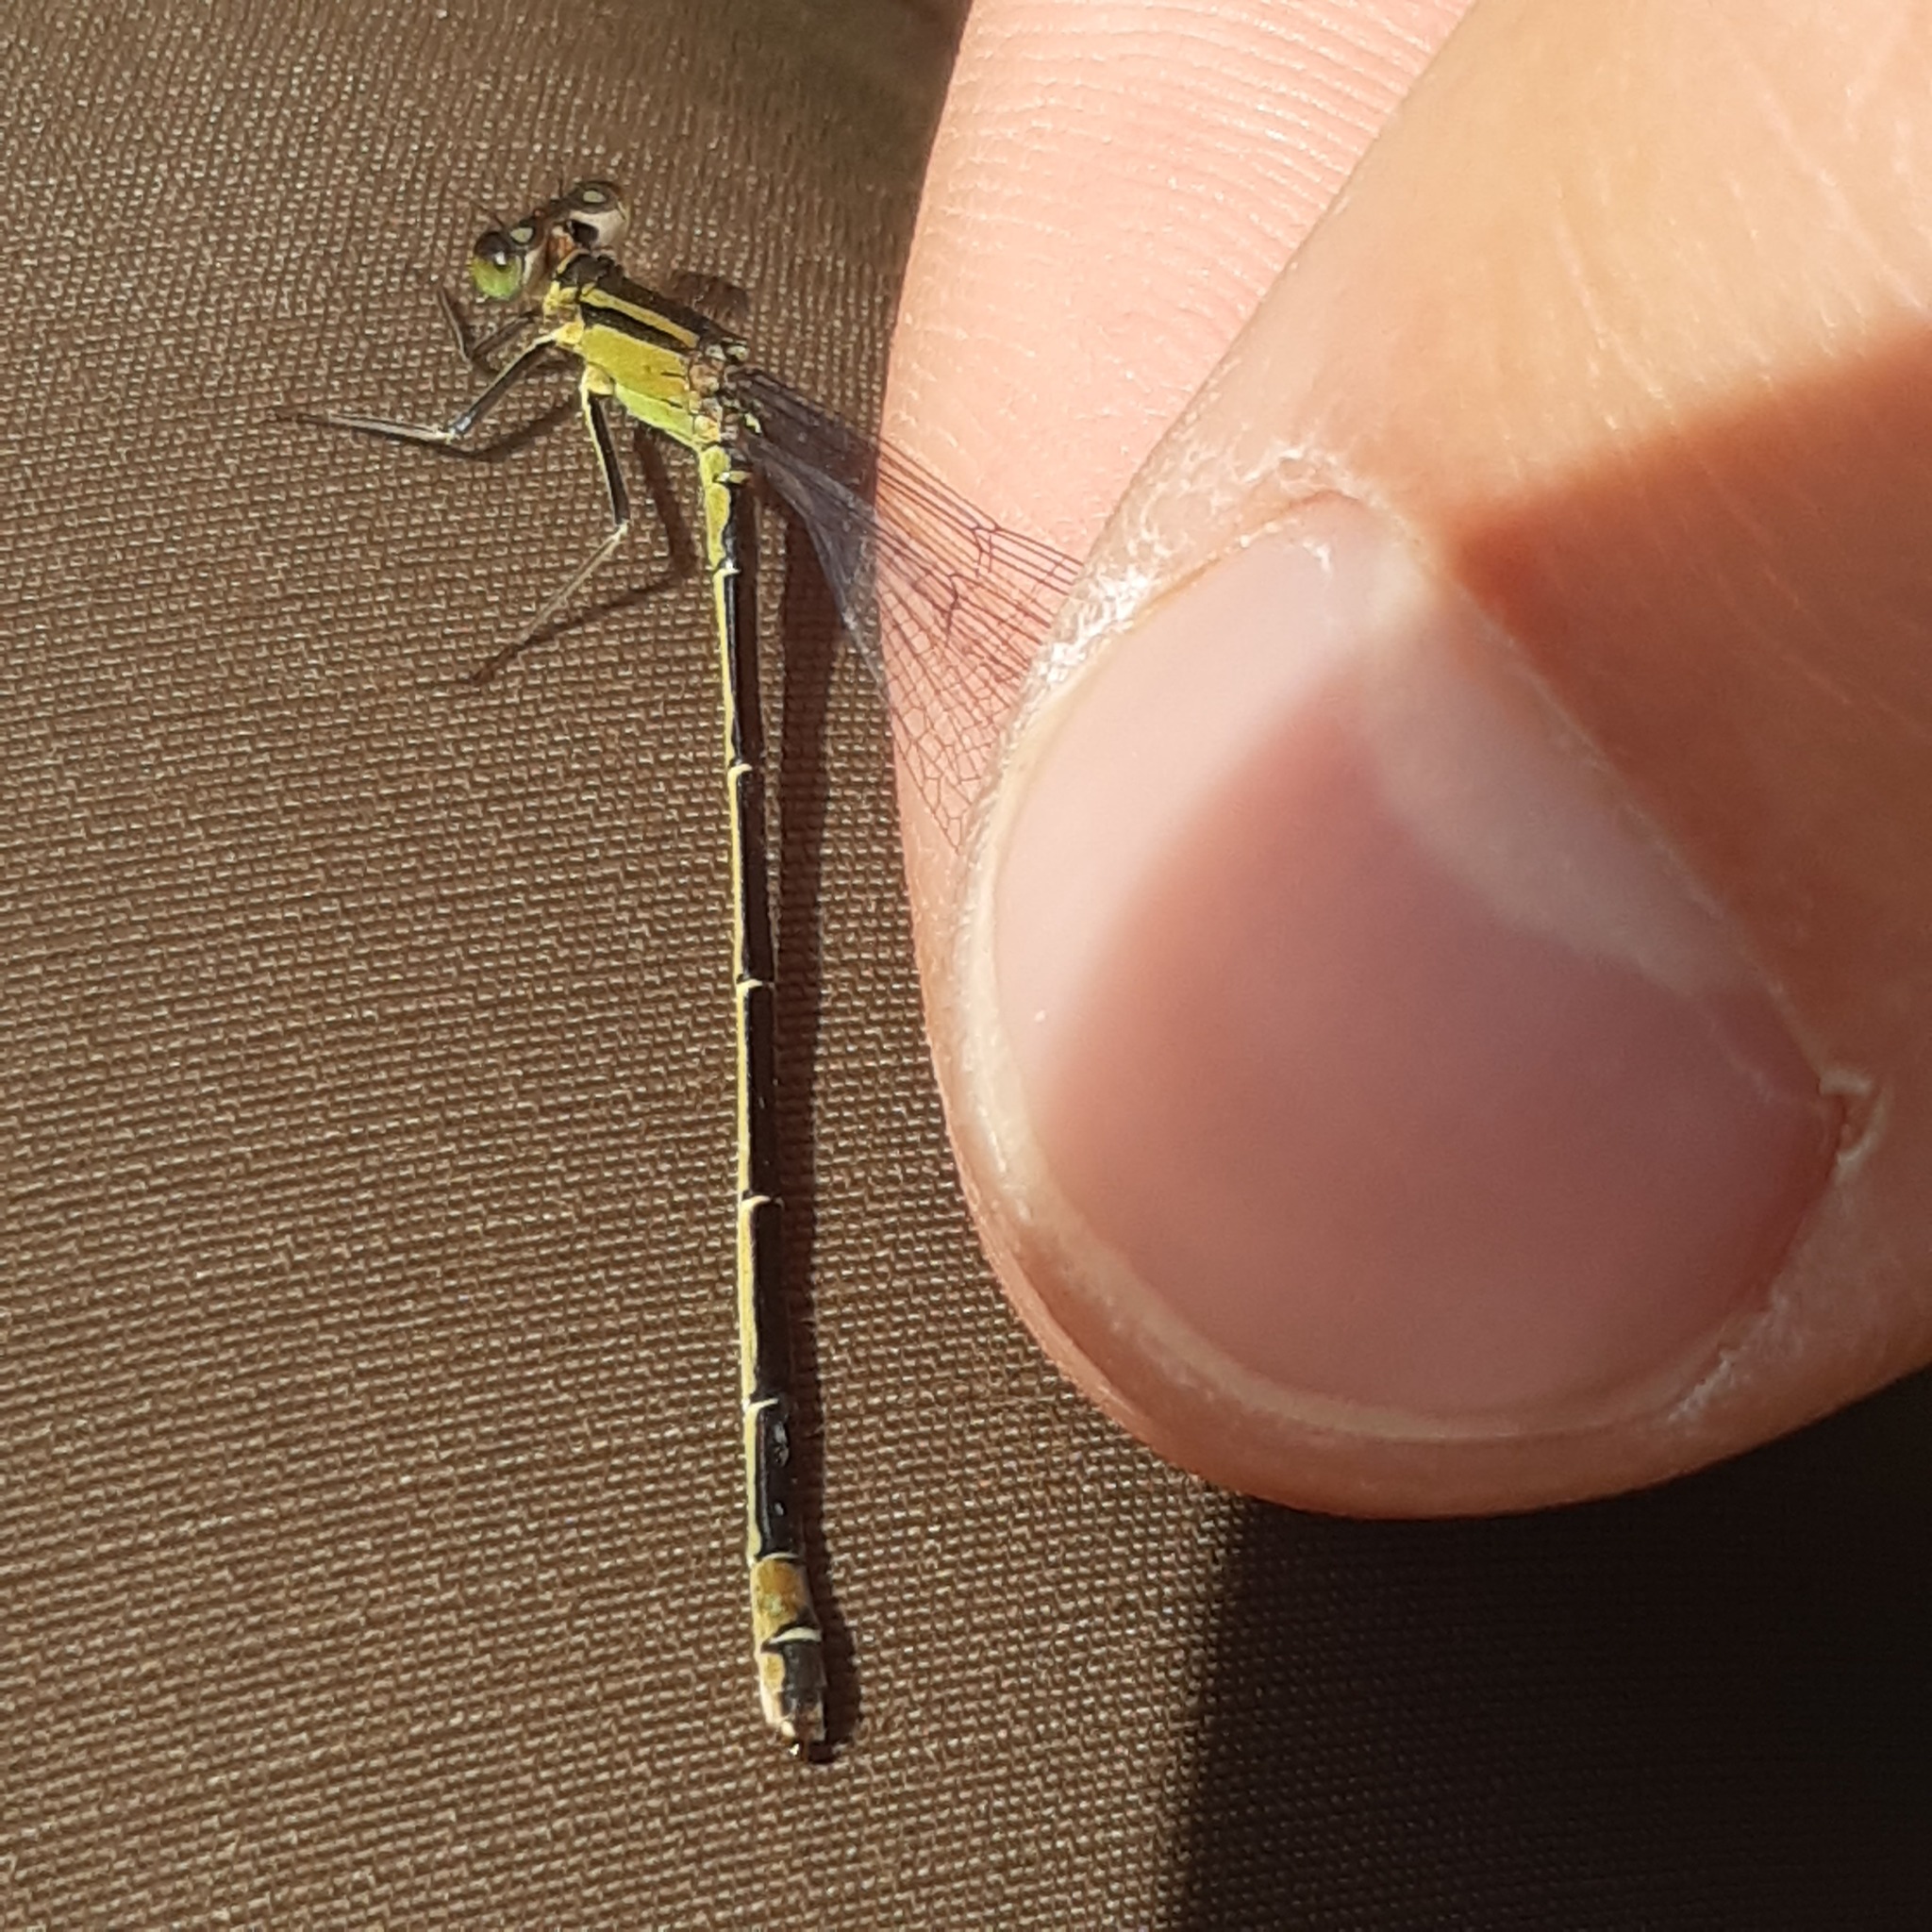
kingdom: Animalia
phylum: Arthropoda
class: Insecta
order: Odonata
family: Coenagrionidae
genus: Ischnura
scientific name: Ischnura elegans
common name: Blue-tailed damselfly
